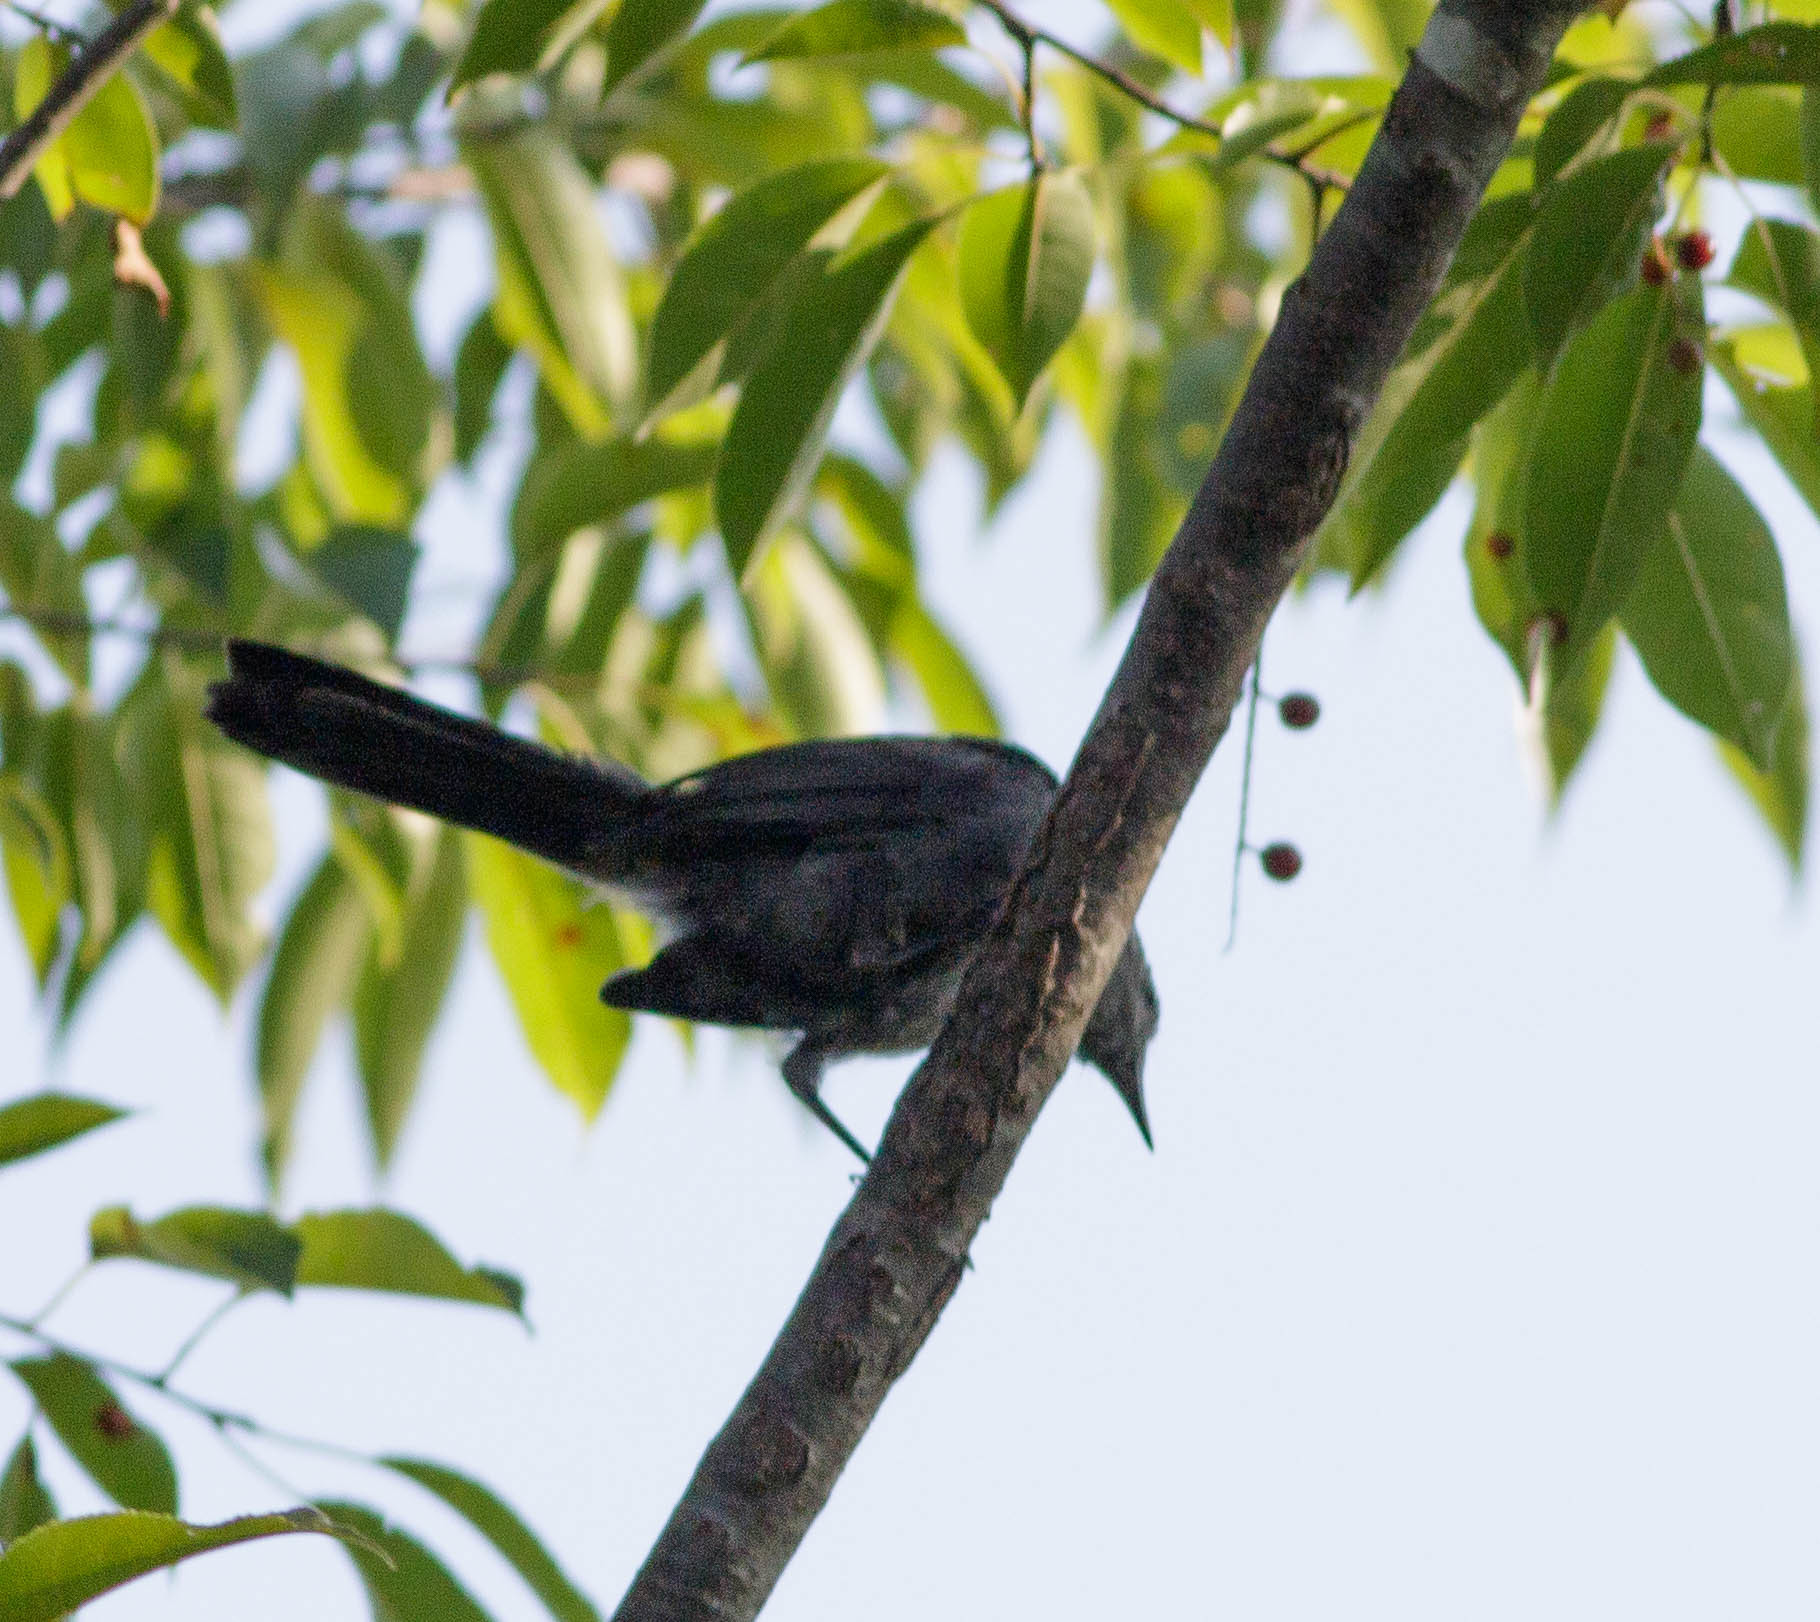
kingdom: Animalia
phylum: Chordata
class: Aves
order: Passeriformes
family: Mimidae
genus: Dumetella
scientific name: Dumetella carolinensis
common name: Gray catbird
